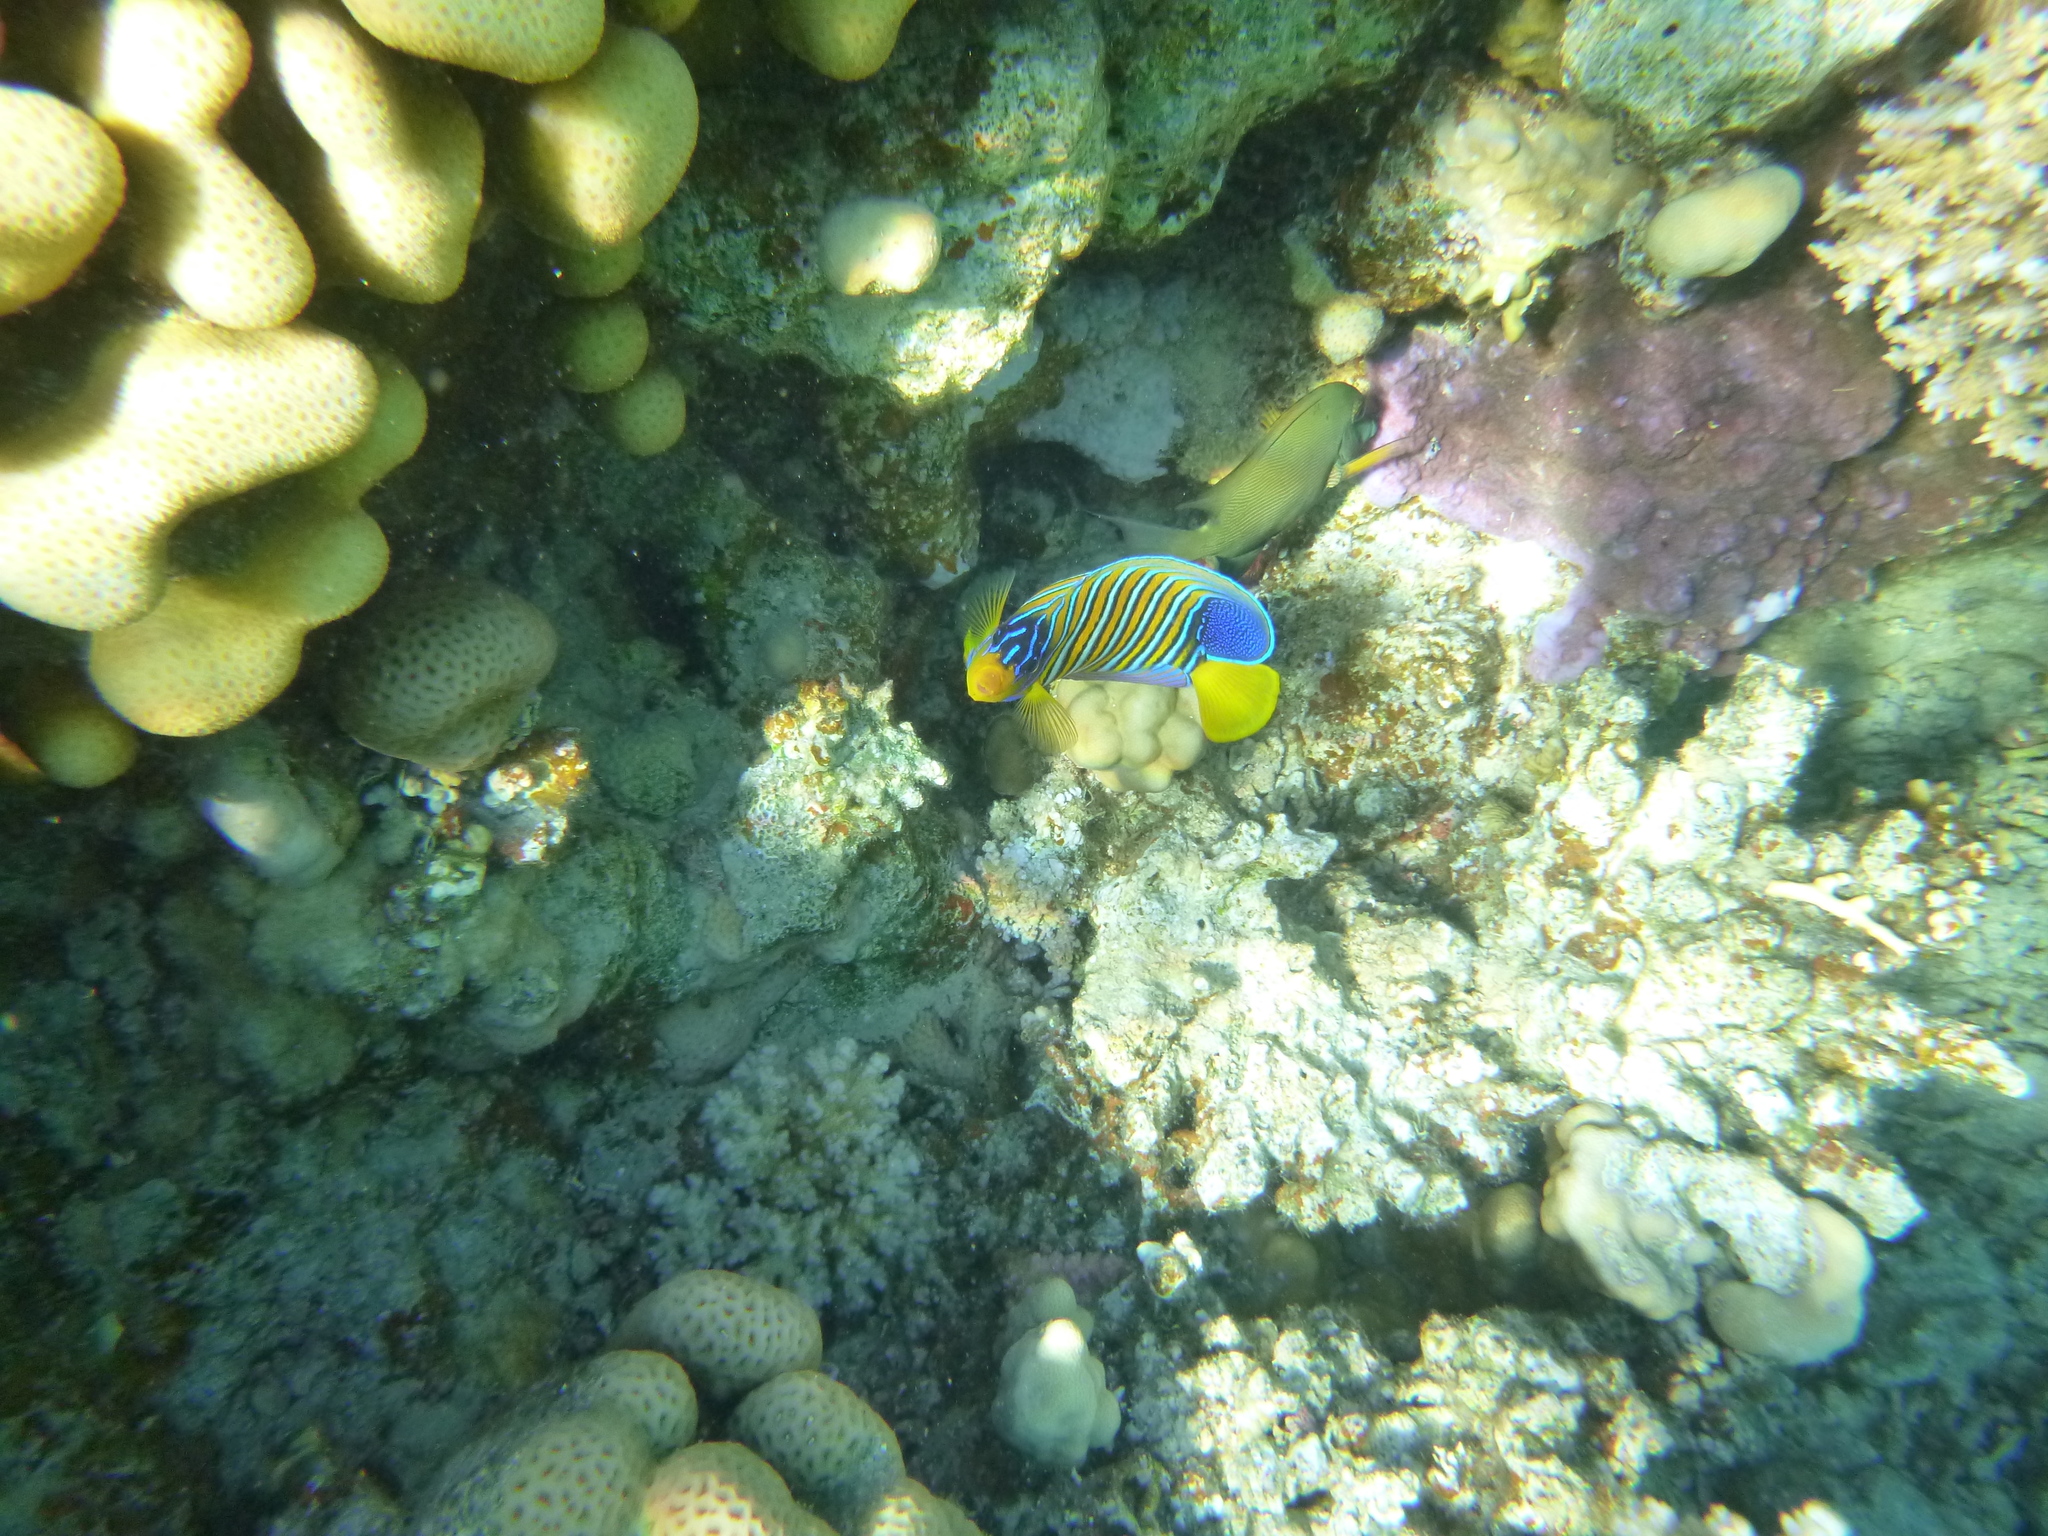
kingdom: Animalia
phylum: Chordata
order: Perciformes
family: Pomacanthidae
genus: Pygoplites
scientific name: Pygoplites diacanthus
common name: Regal angelfish
